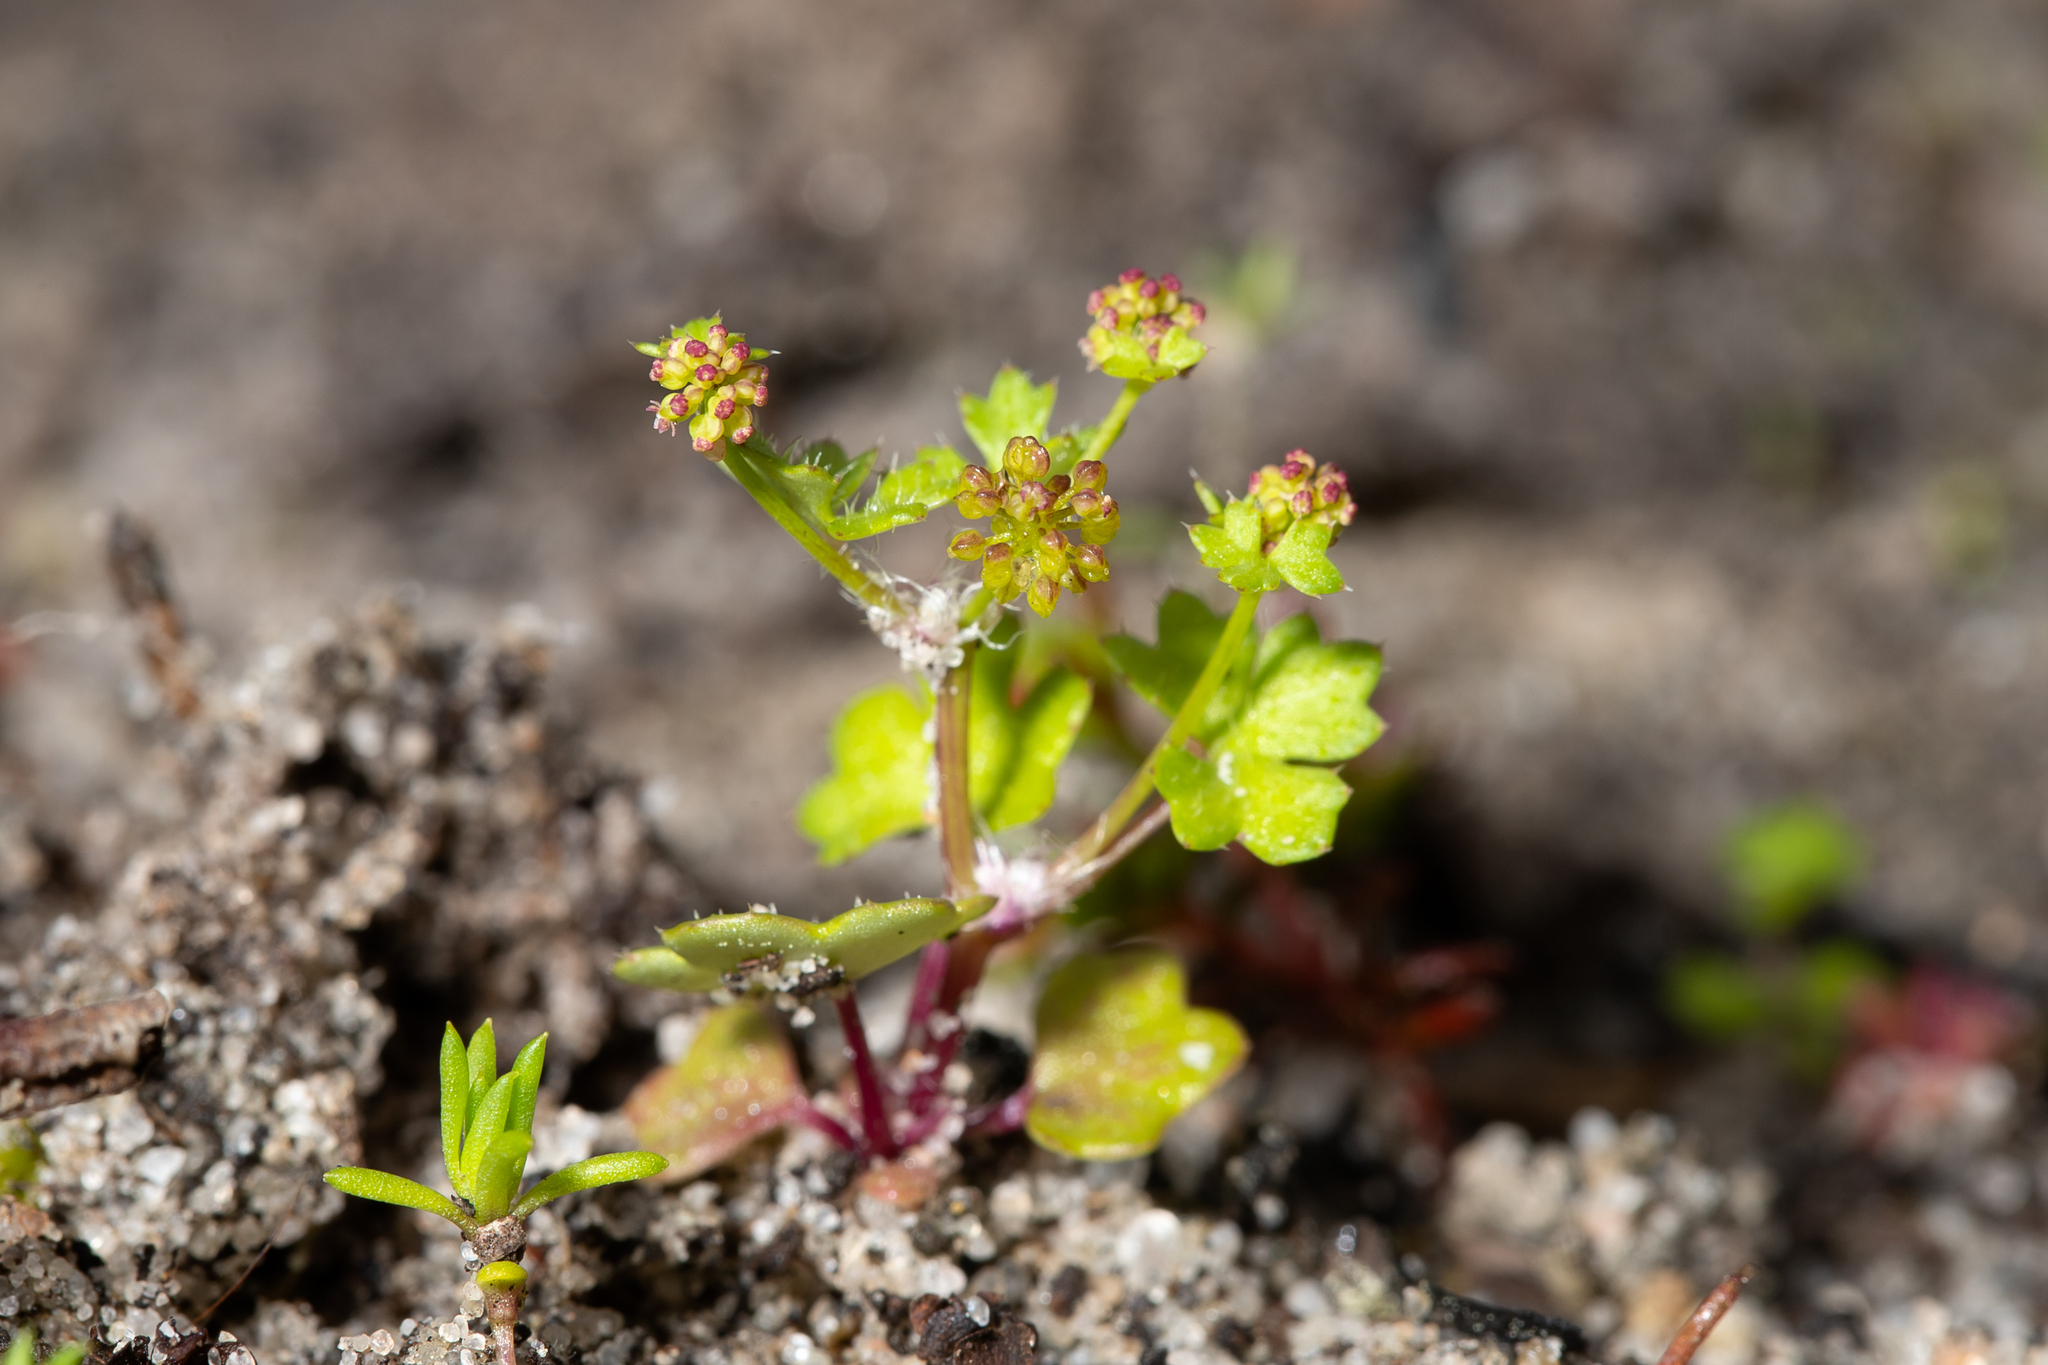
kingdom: Plantae
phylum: Tracheophyta
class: Magnoliopsida
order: Apiales
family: Araliaceae
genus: Hydrocotyle
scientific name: Hydrocotyle callicarpa
